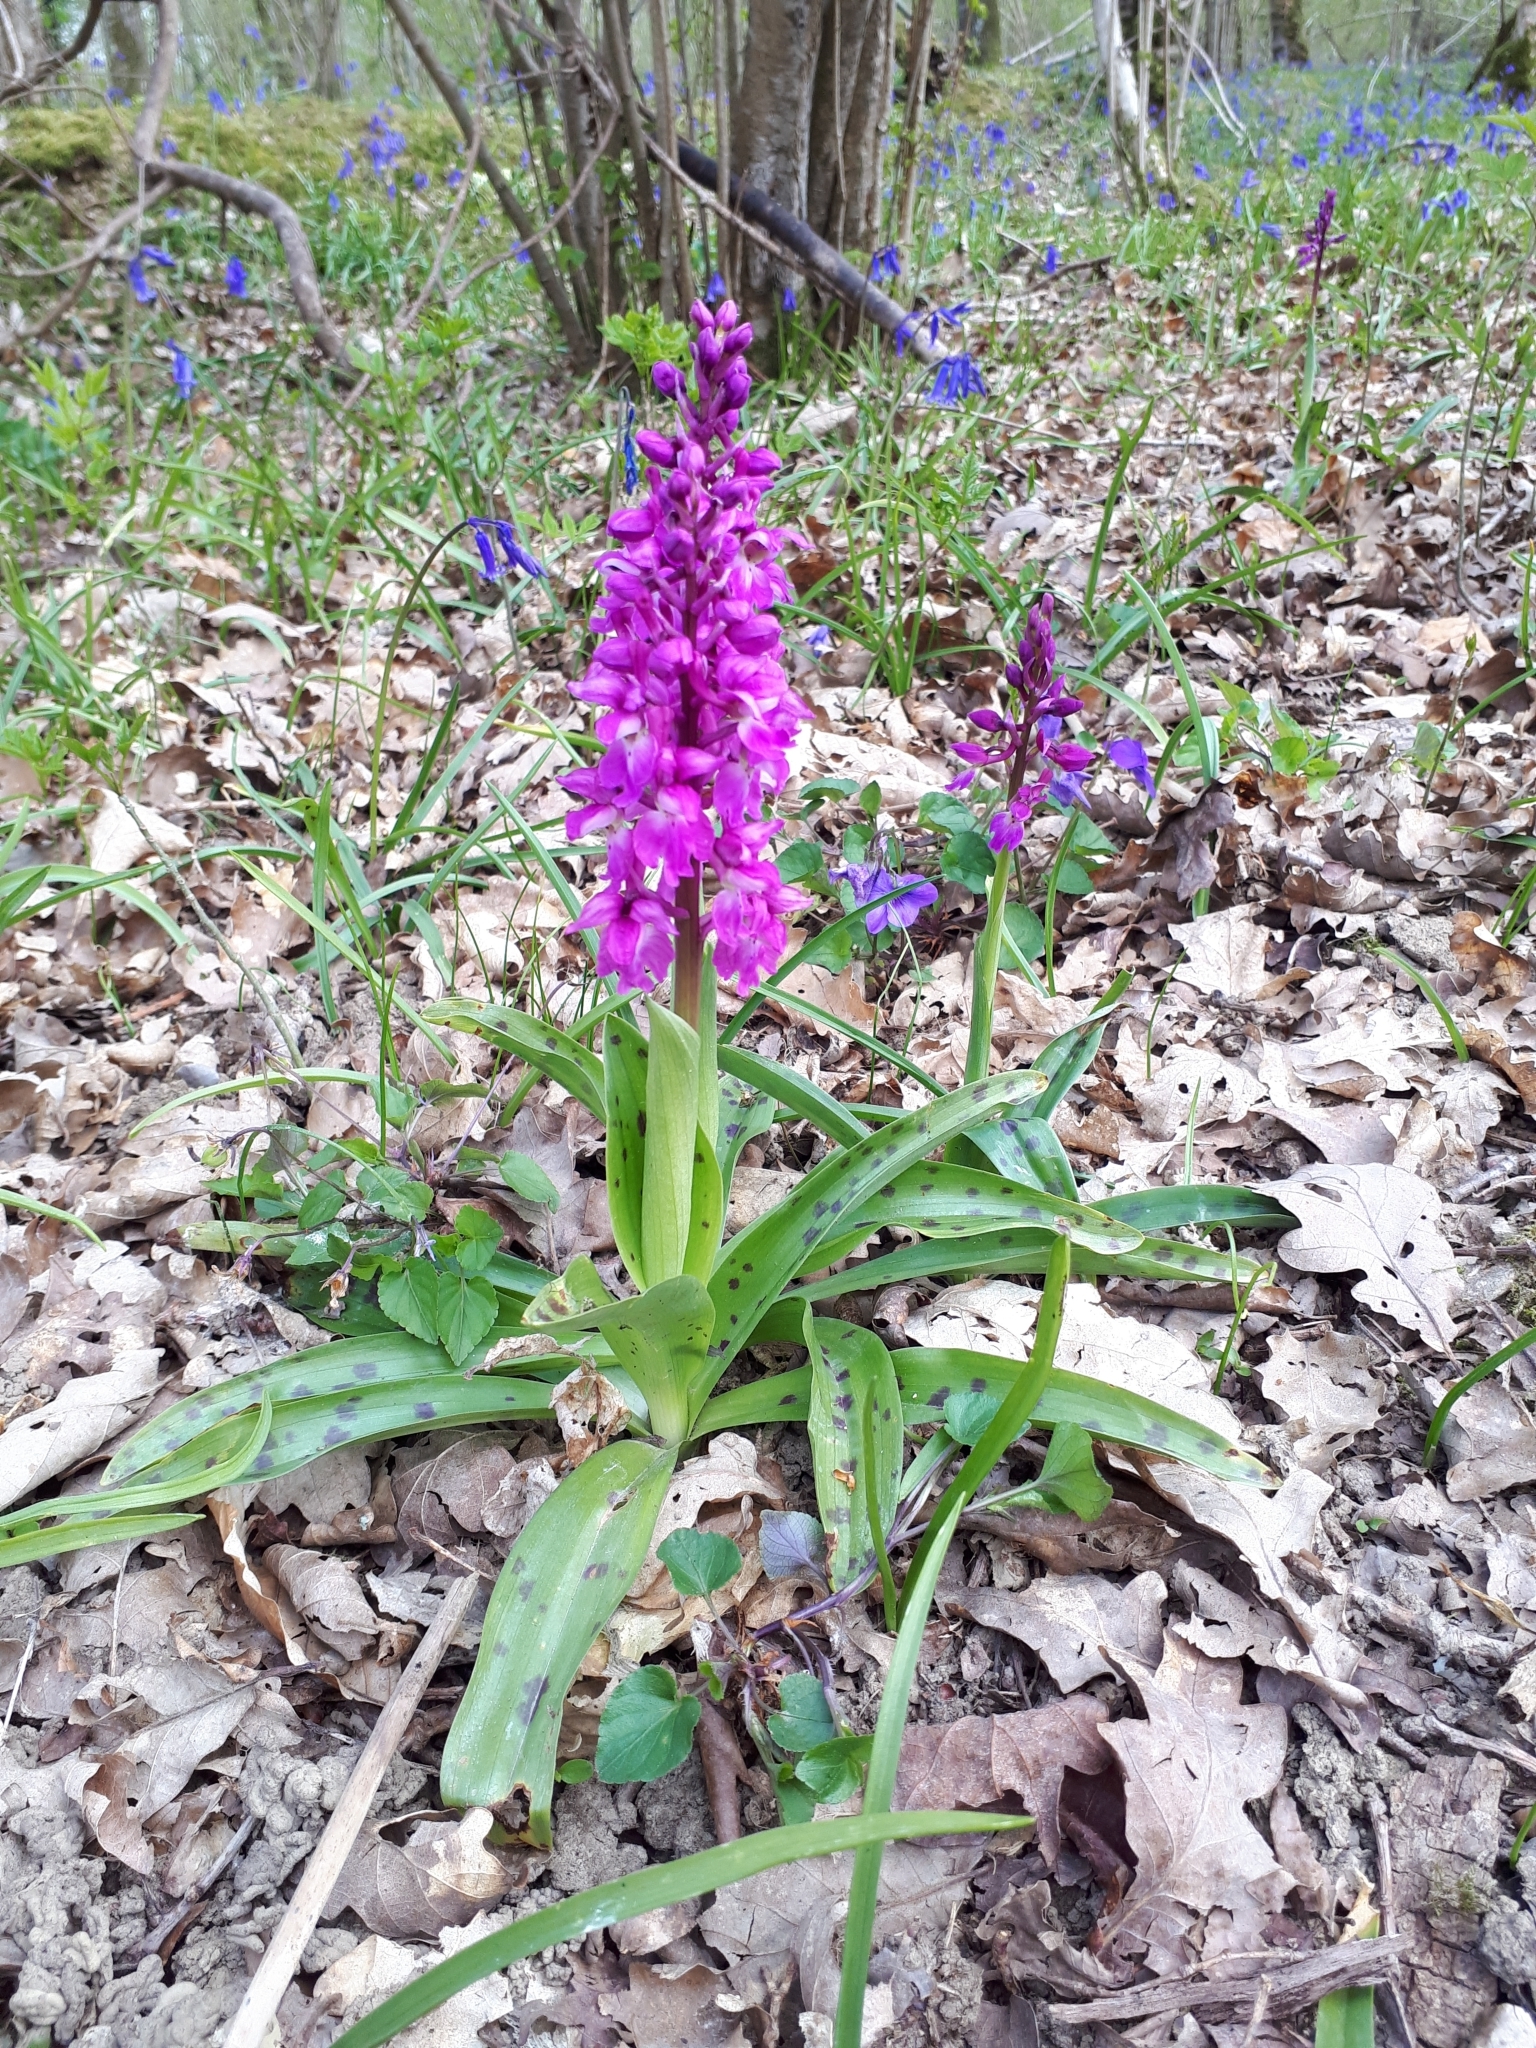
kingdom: Plantae
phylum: Tracheophyta
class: Liliopsida
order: Asparagales
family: Orchidaceae
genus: Orchis
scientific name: Orchis mascula
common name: Early-purple orchid
